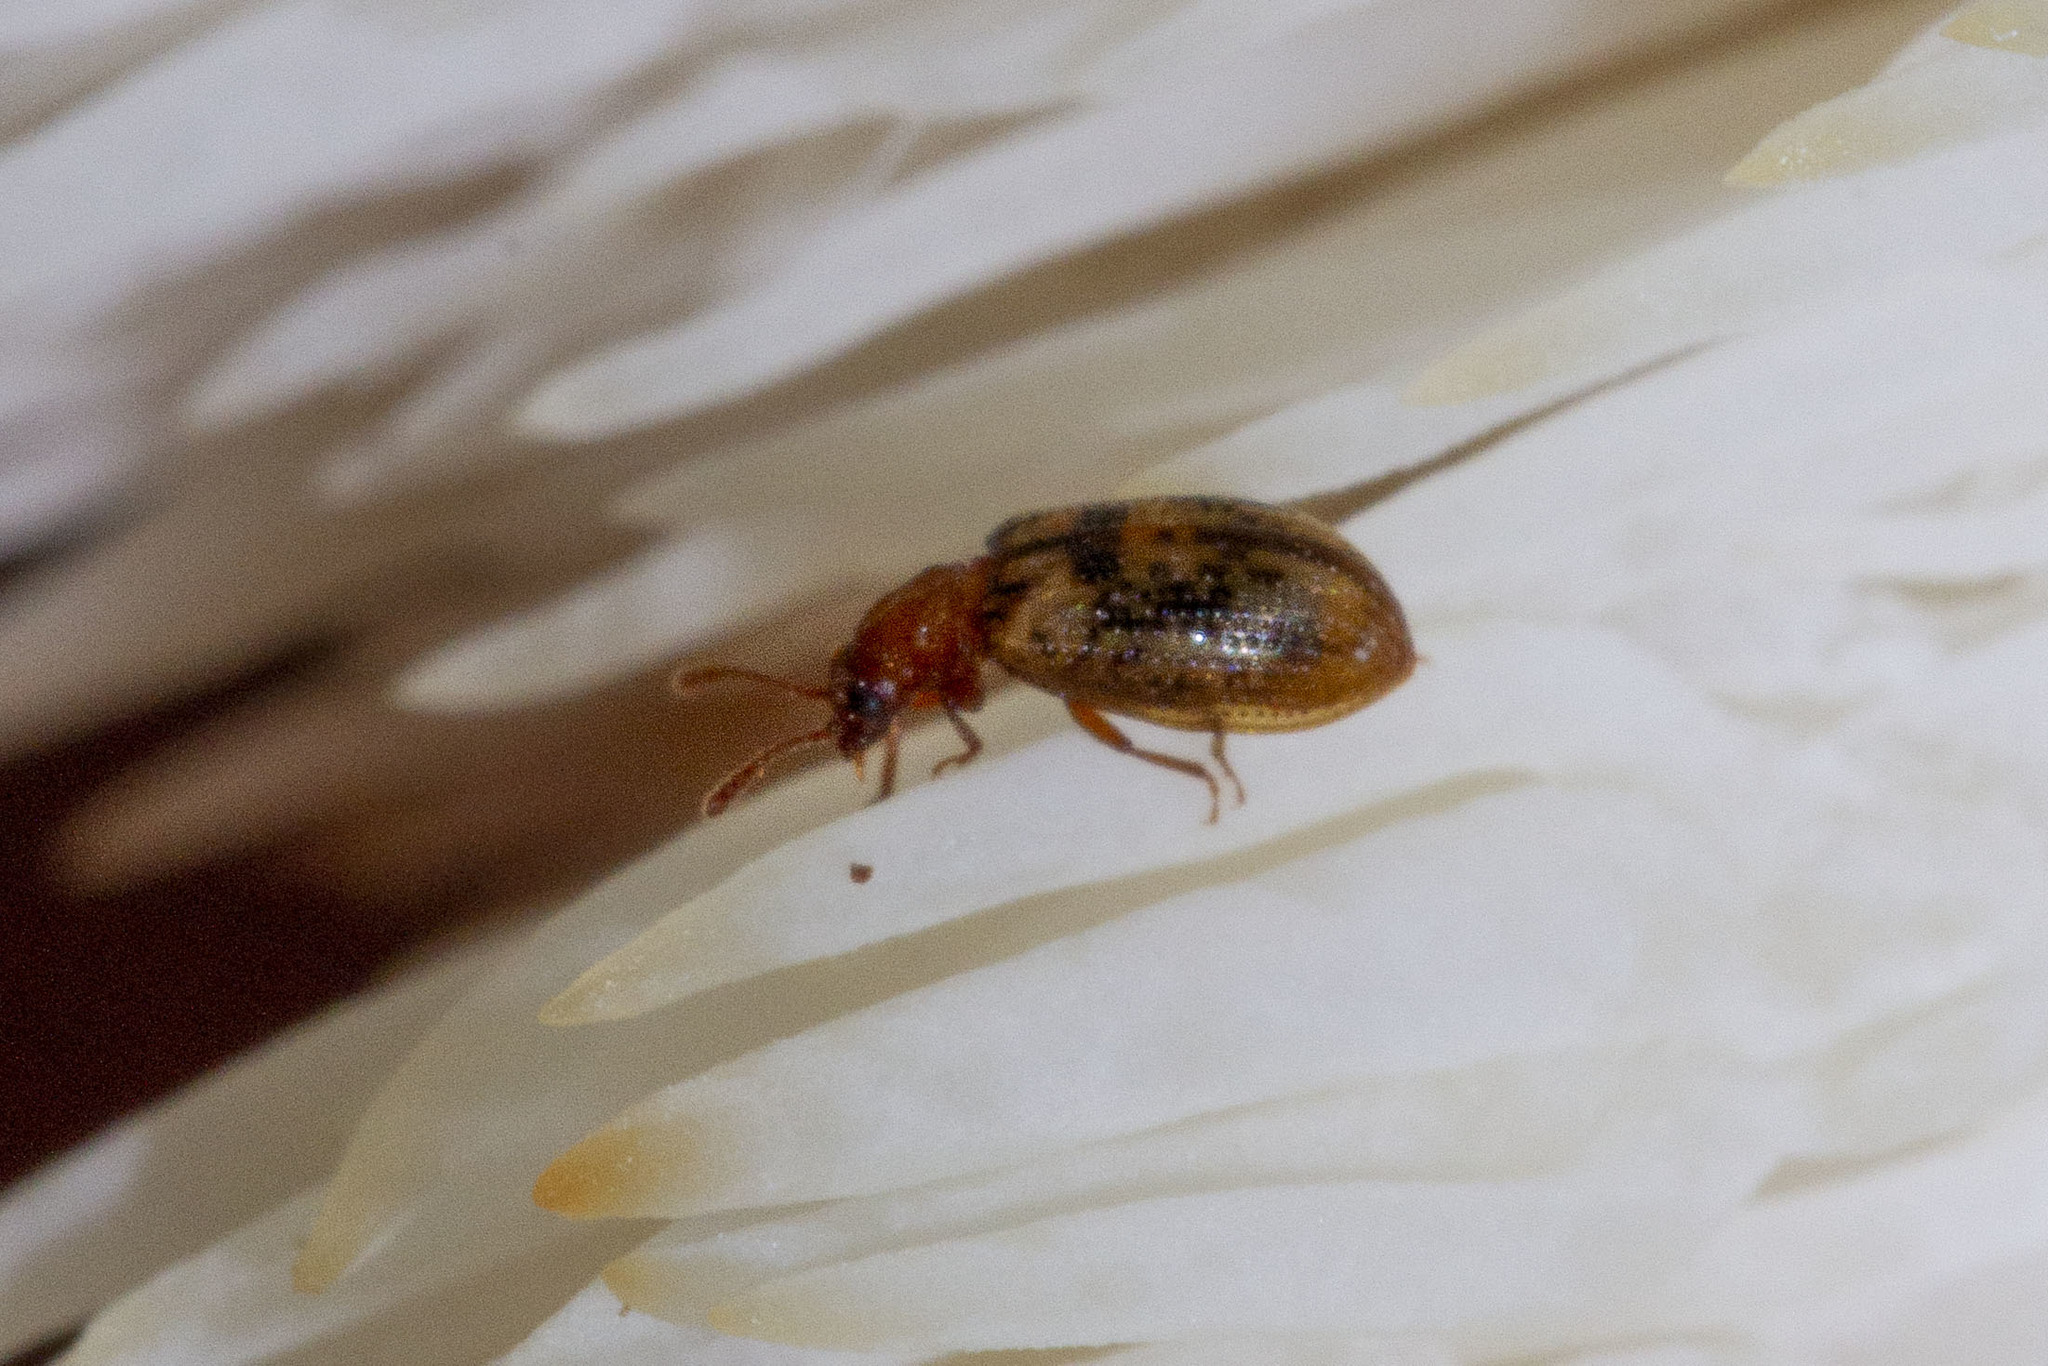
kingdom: Animalia
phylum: Arthropoda
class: Insecta
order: Coleoptera
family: Derodontidae
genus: Derodontus
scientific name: Derodontus esotericus
